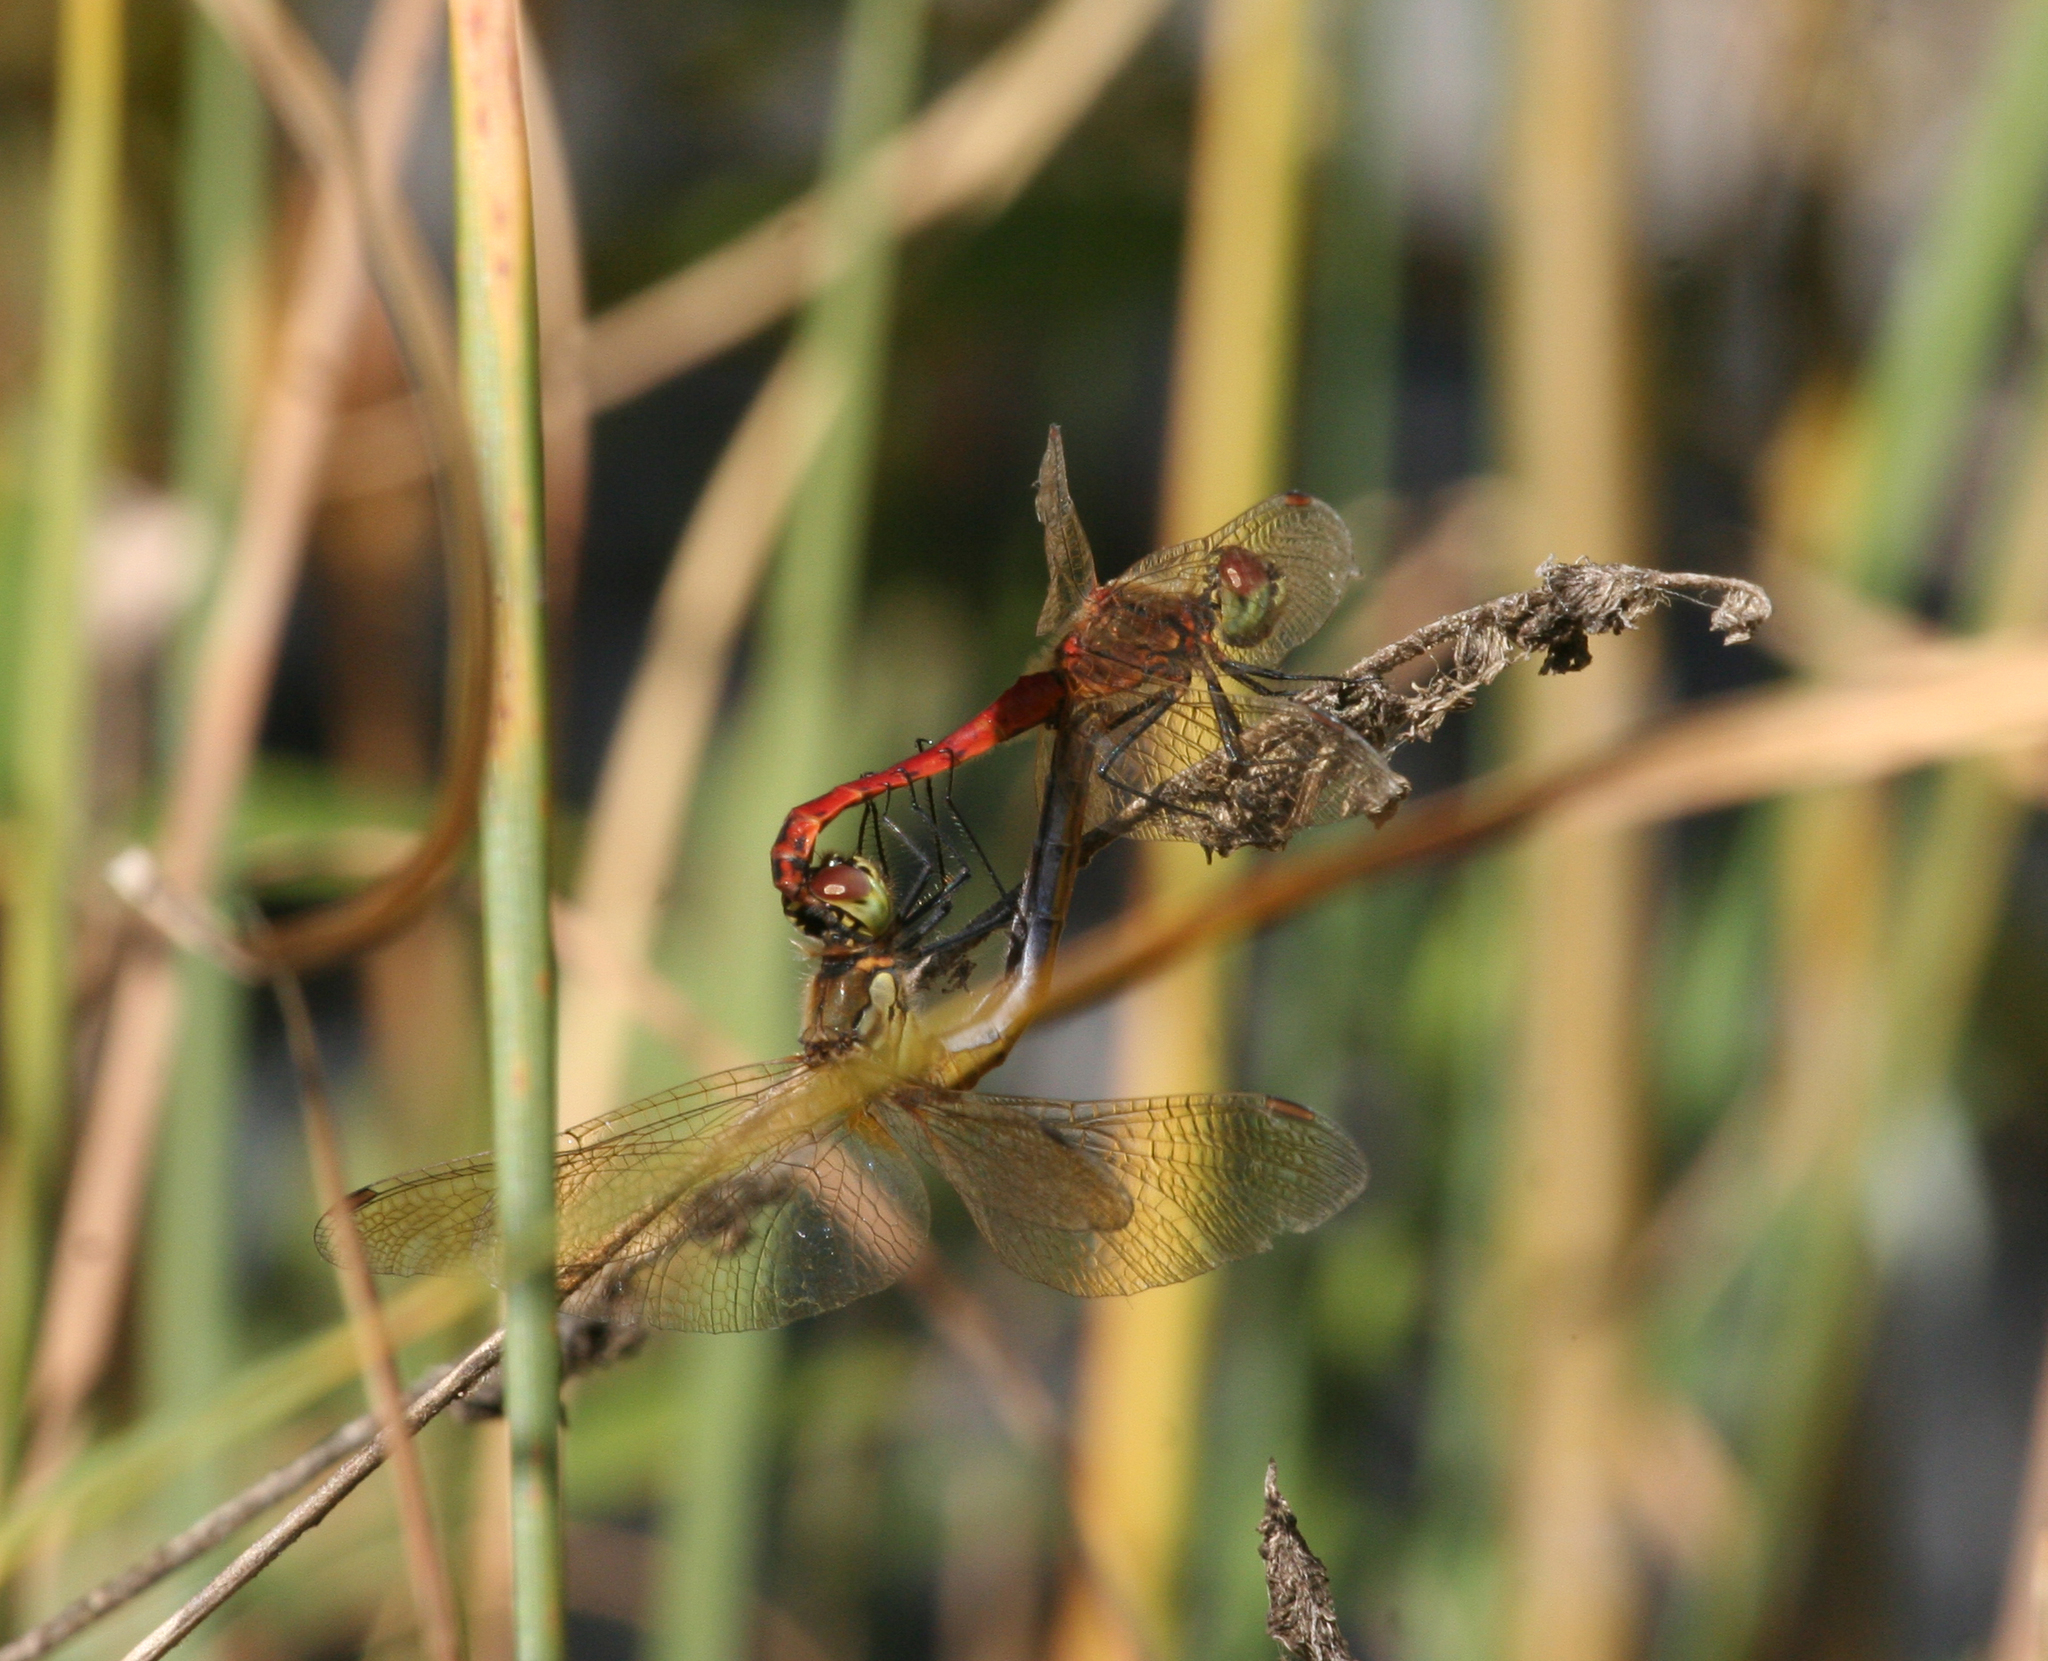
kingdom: Animalia
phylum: Arthropoda
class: Insecta
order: Odonata
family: Libellulidae
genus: Sympetrum
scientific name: Sympetrum depressiusculum
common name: Spotted darter
